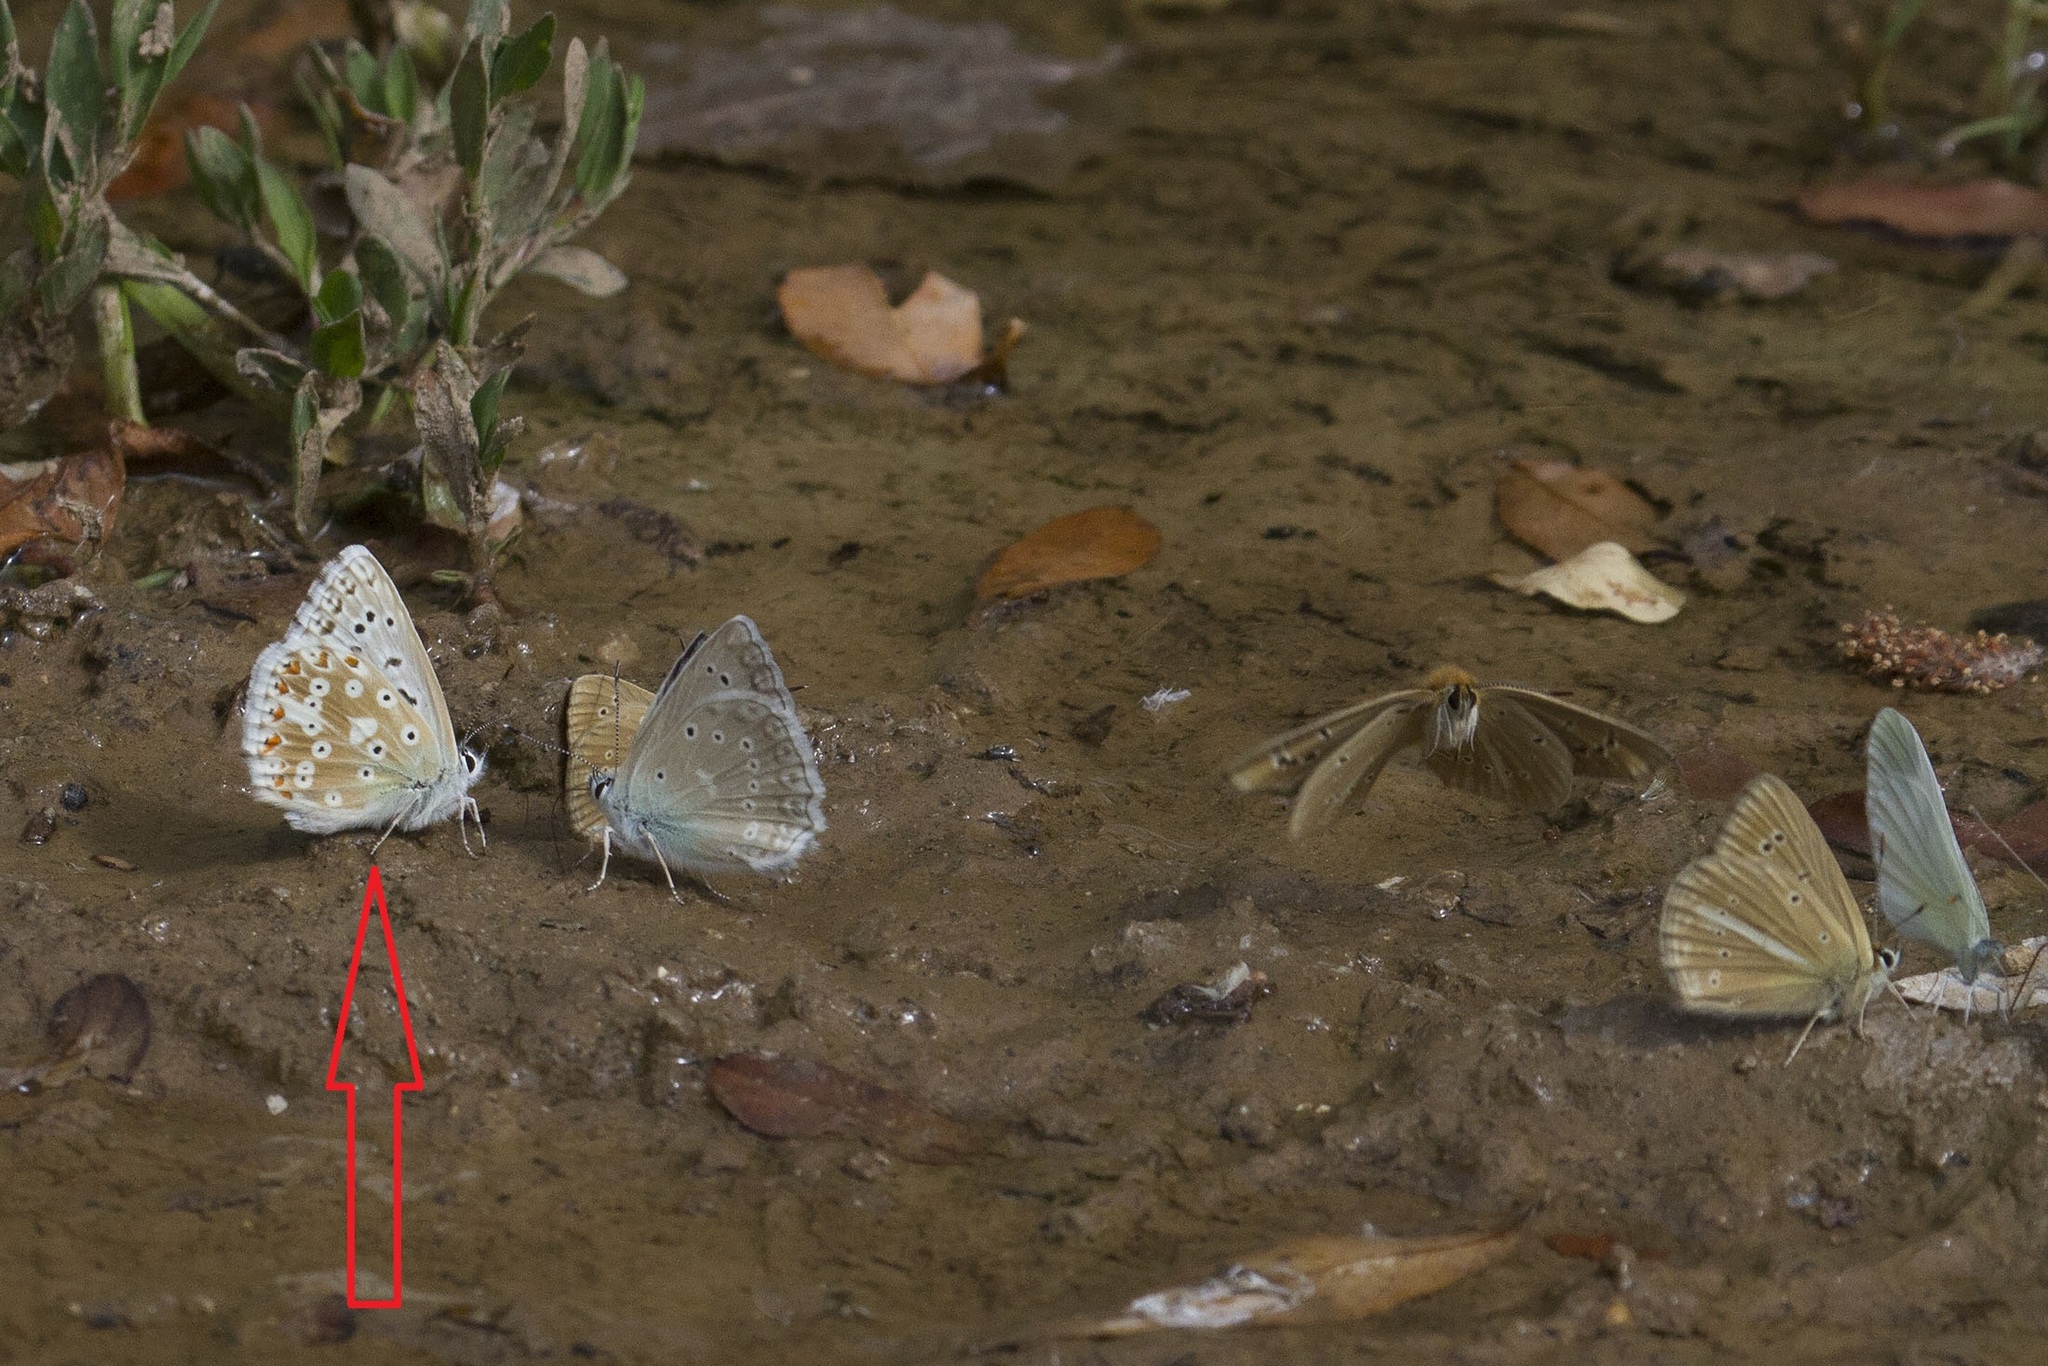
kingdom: Animalia
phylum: Arthropoda
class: Insecta
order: Lepidoptera
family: Lycaenidae
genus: Agriades
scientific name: Agriades corydonius
